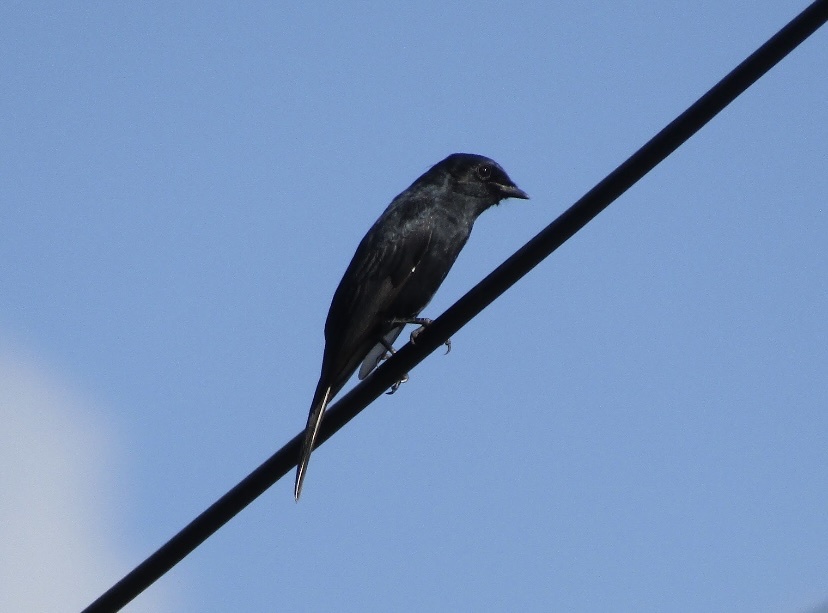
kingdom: Animalia
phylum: Chordata
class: Aves
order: Passeriformes
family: Muscicapidae
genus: Melaenornis
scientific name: Melaenornis pammelaina
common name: Southern black flycatcher
